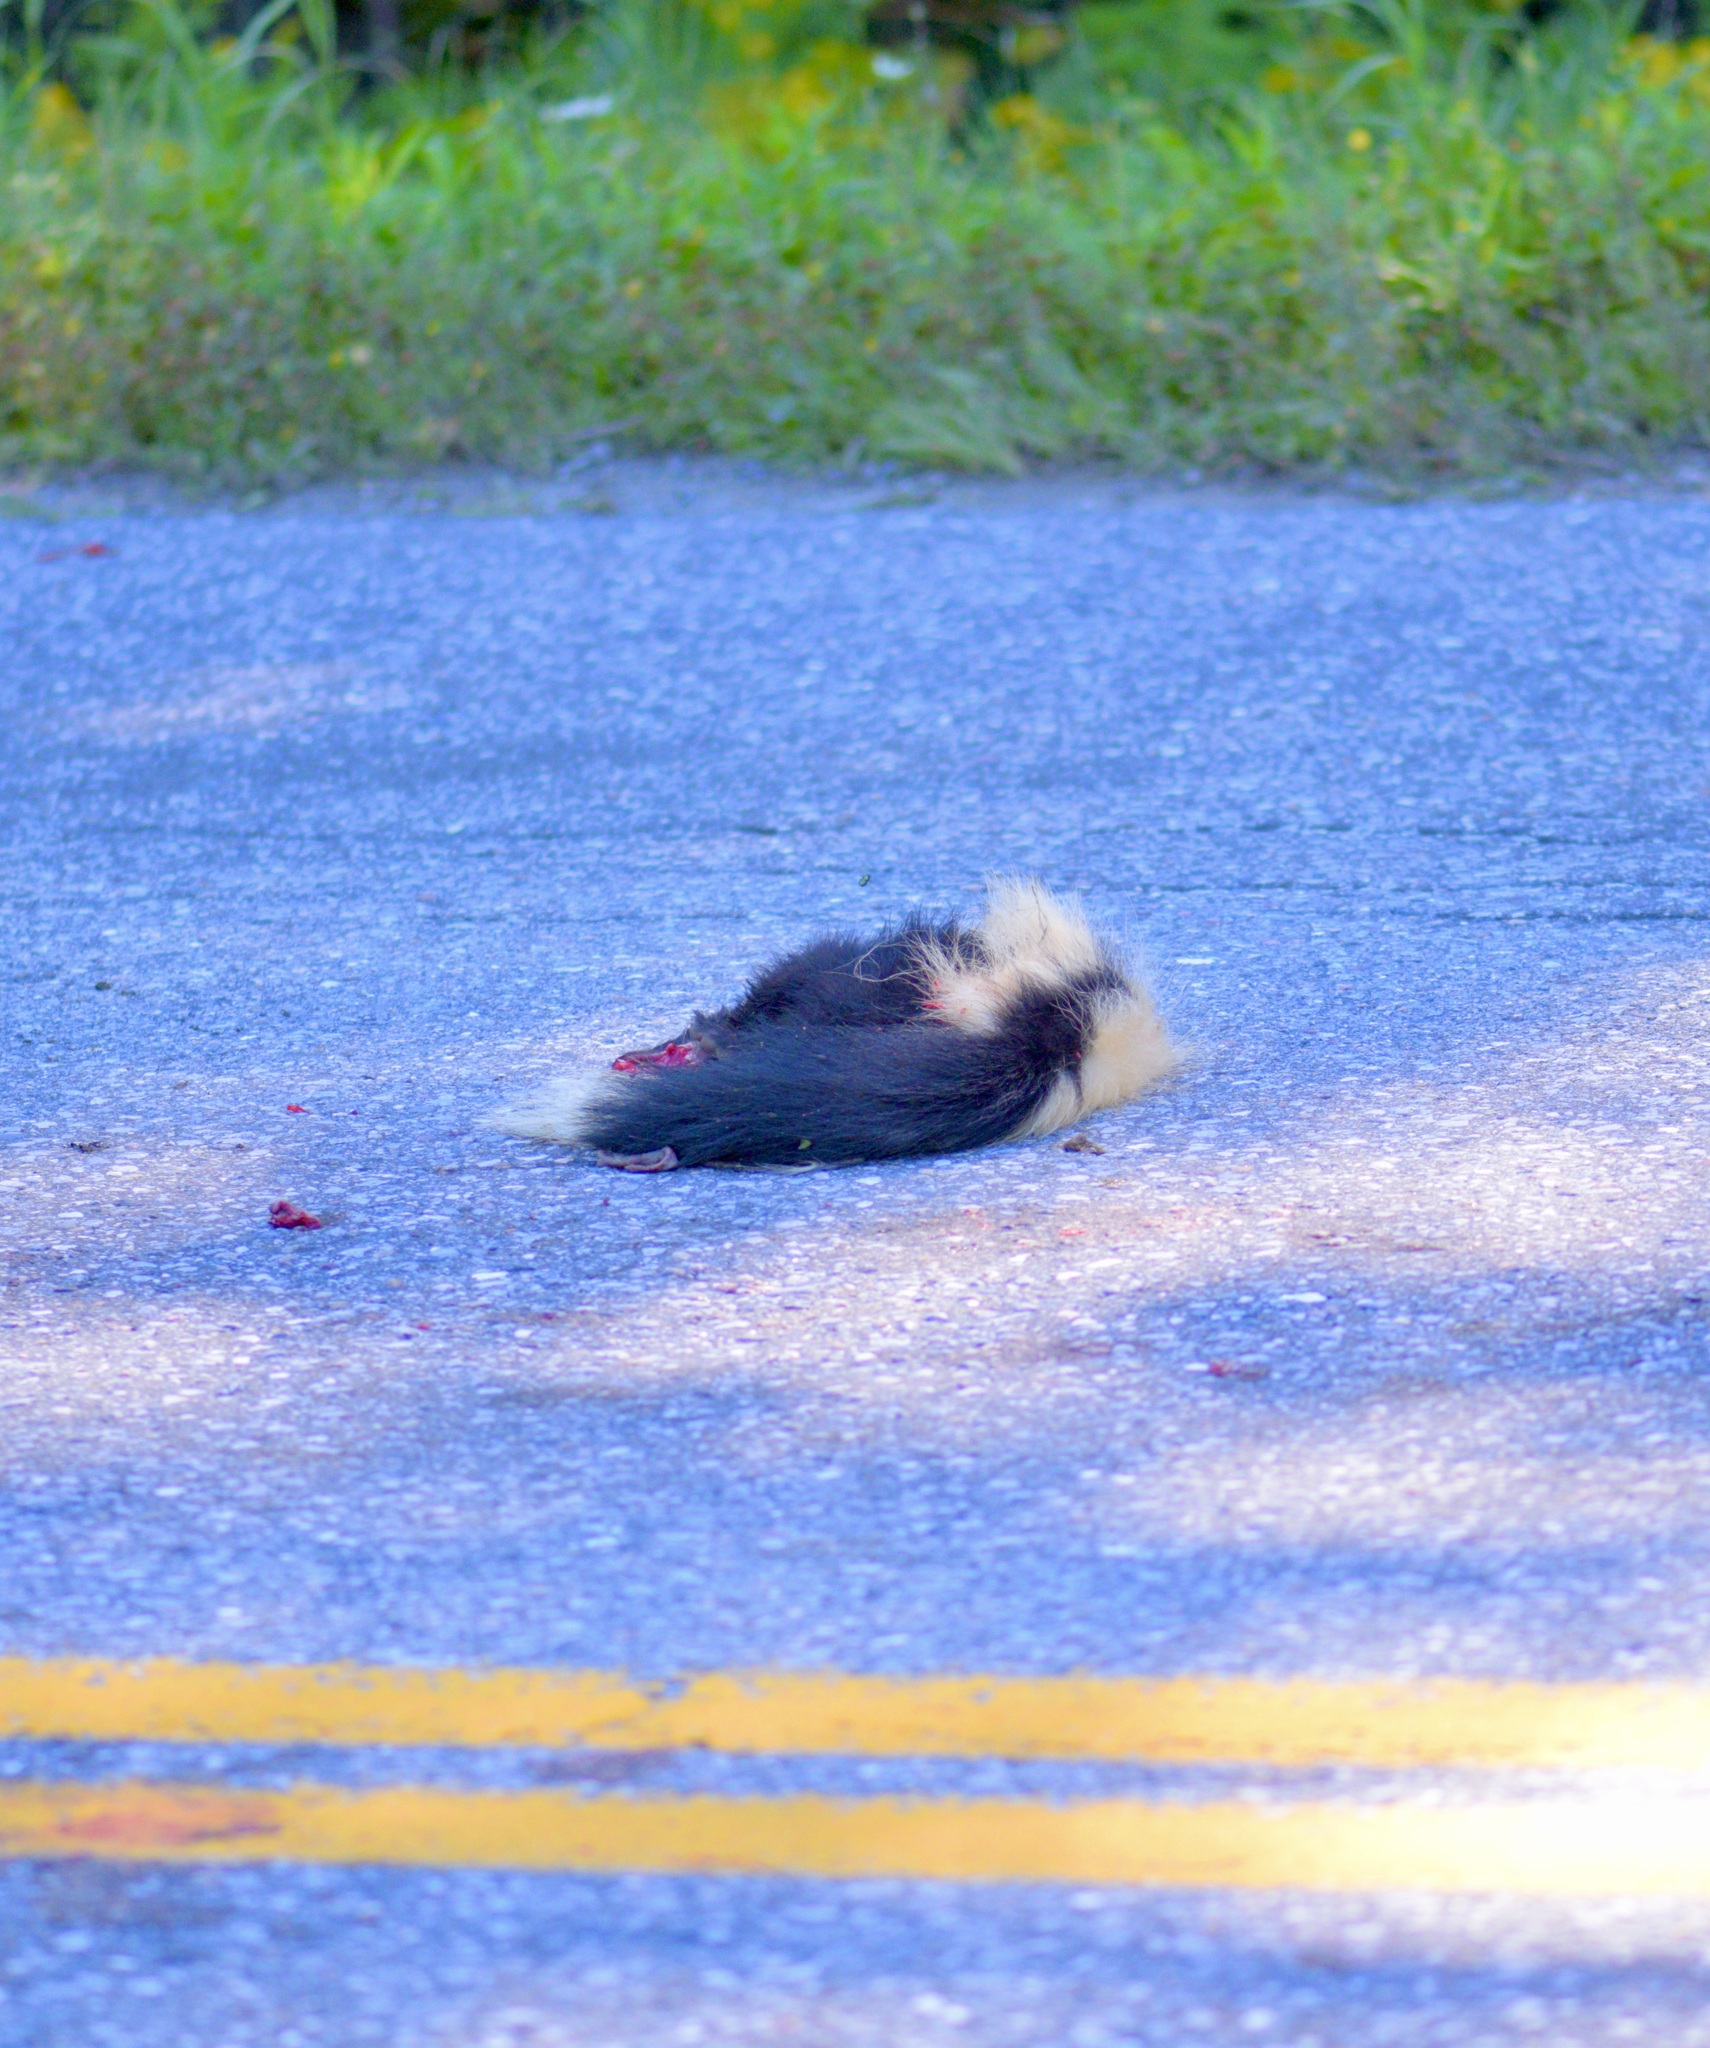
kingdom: Animalia
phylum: Chordata
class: Mammalia
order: Carnivora
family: Mephitidae
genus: Mephitis
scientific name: Mephitis mephitis
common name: Striped skunk
